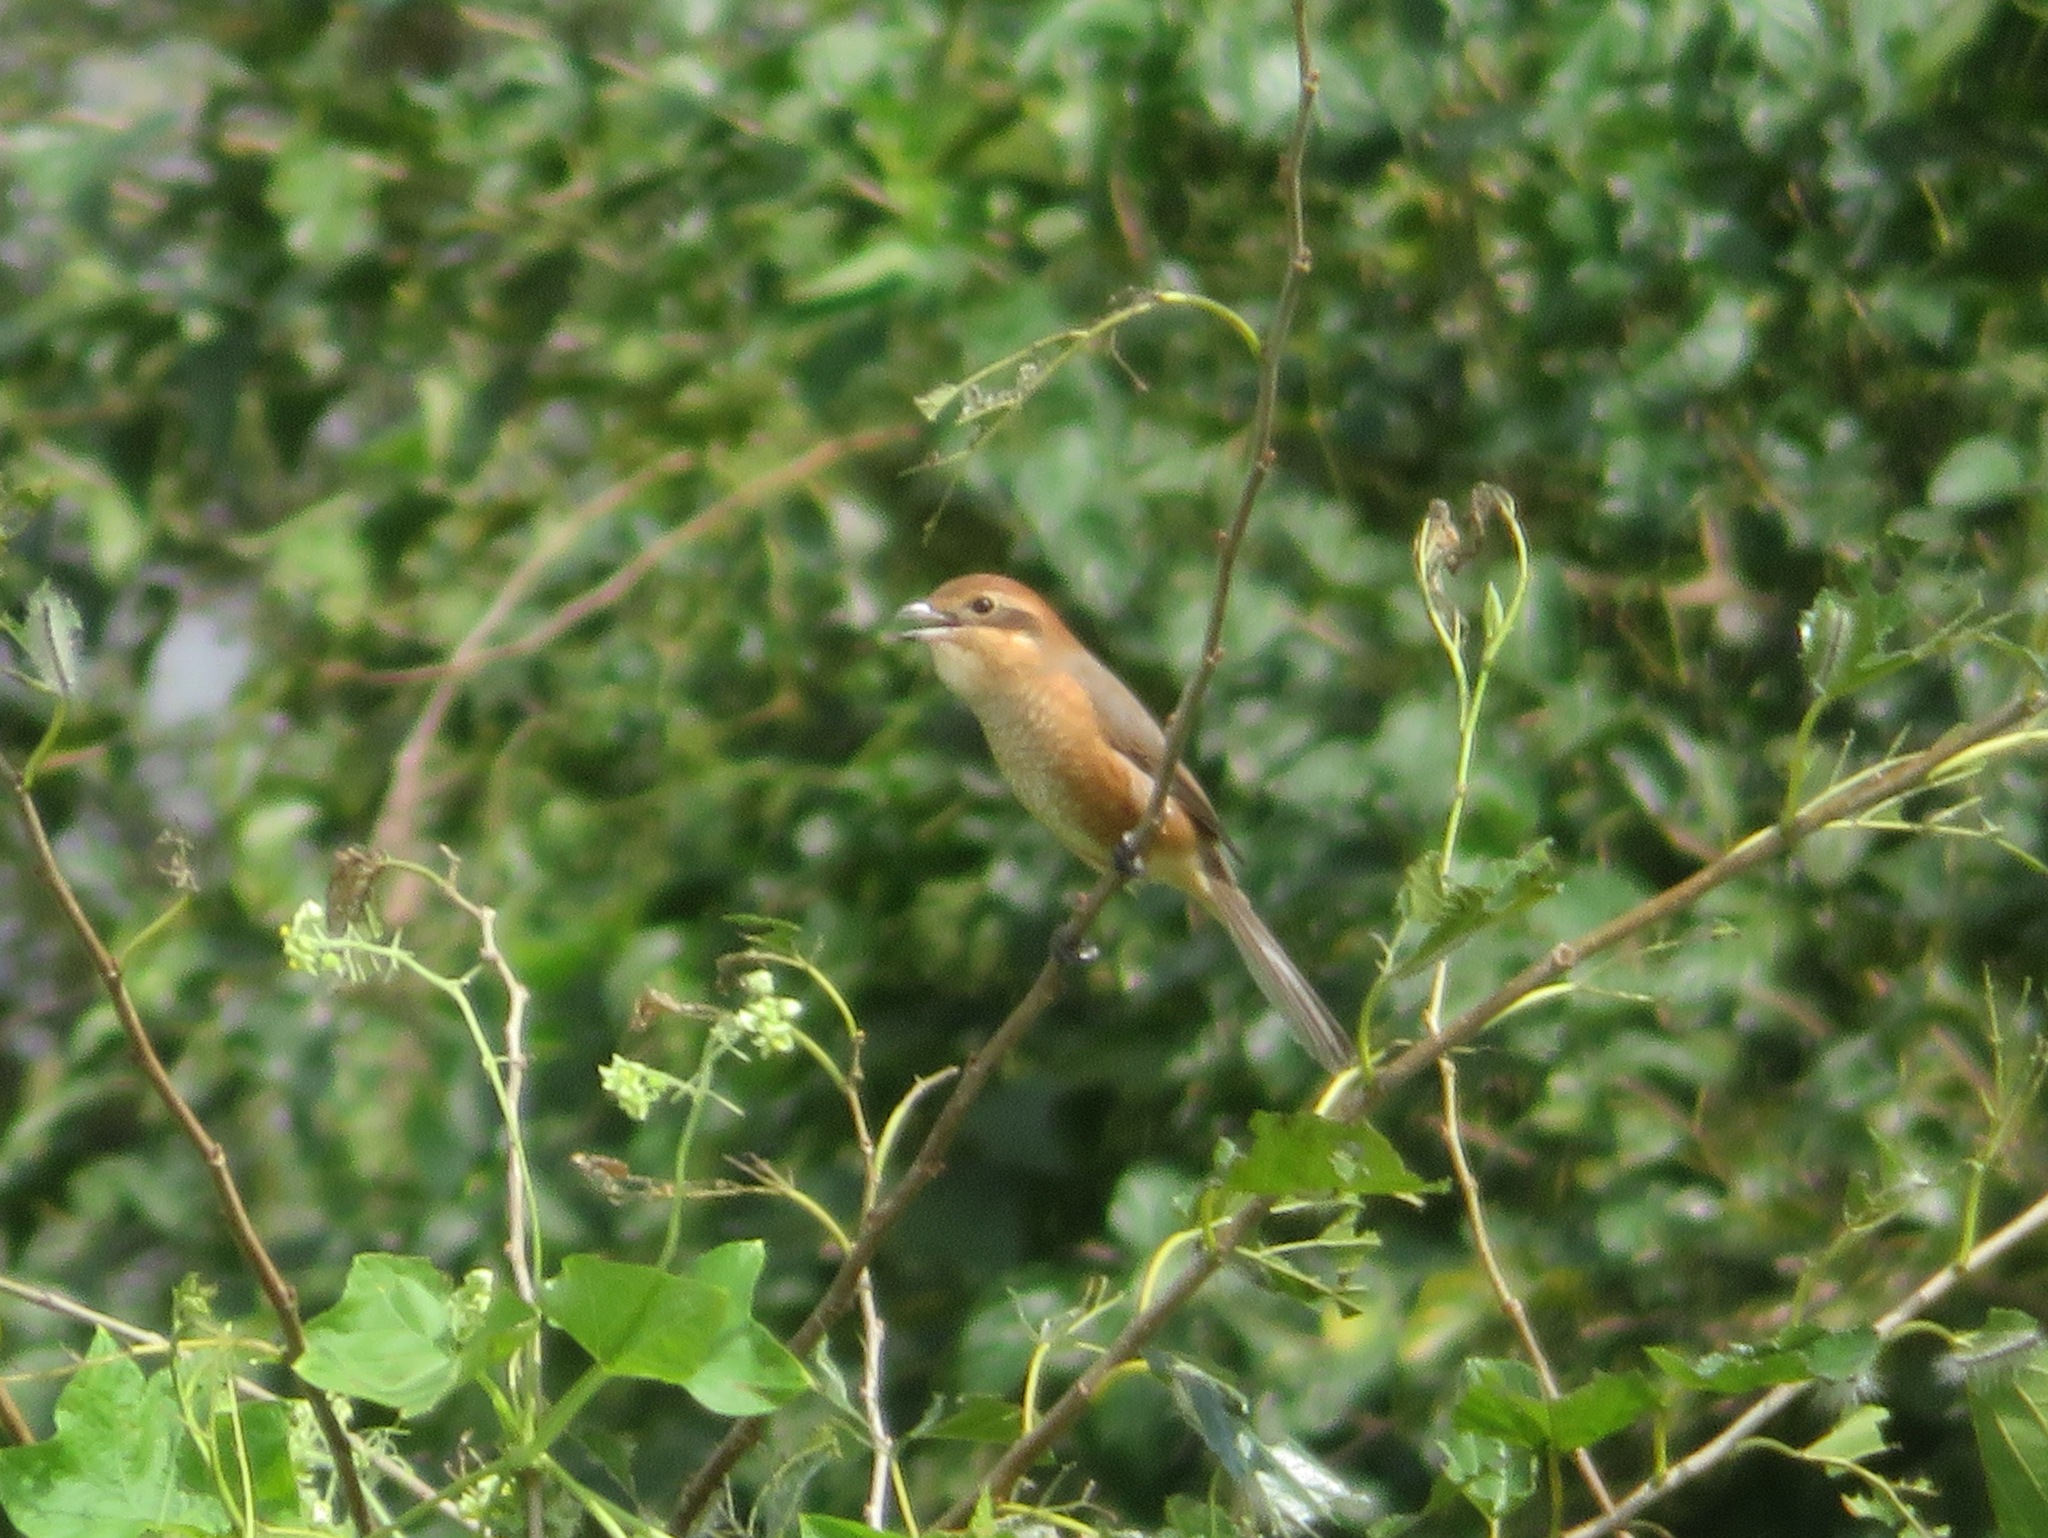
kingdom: Animalia
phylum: Chordata
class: Aves
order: Passeriformes
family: Laniidae
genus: Lanius
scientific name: Lanius bucephalus
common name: Bull-headed shrike
